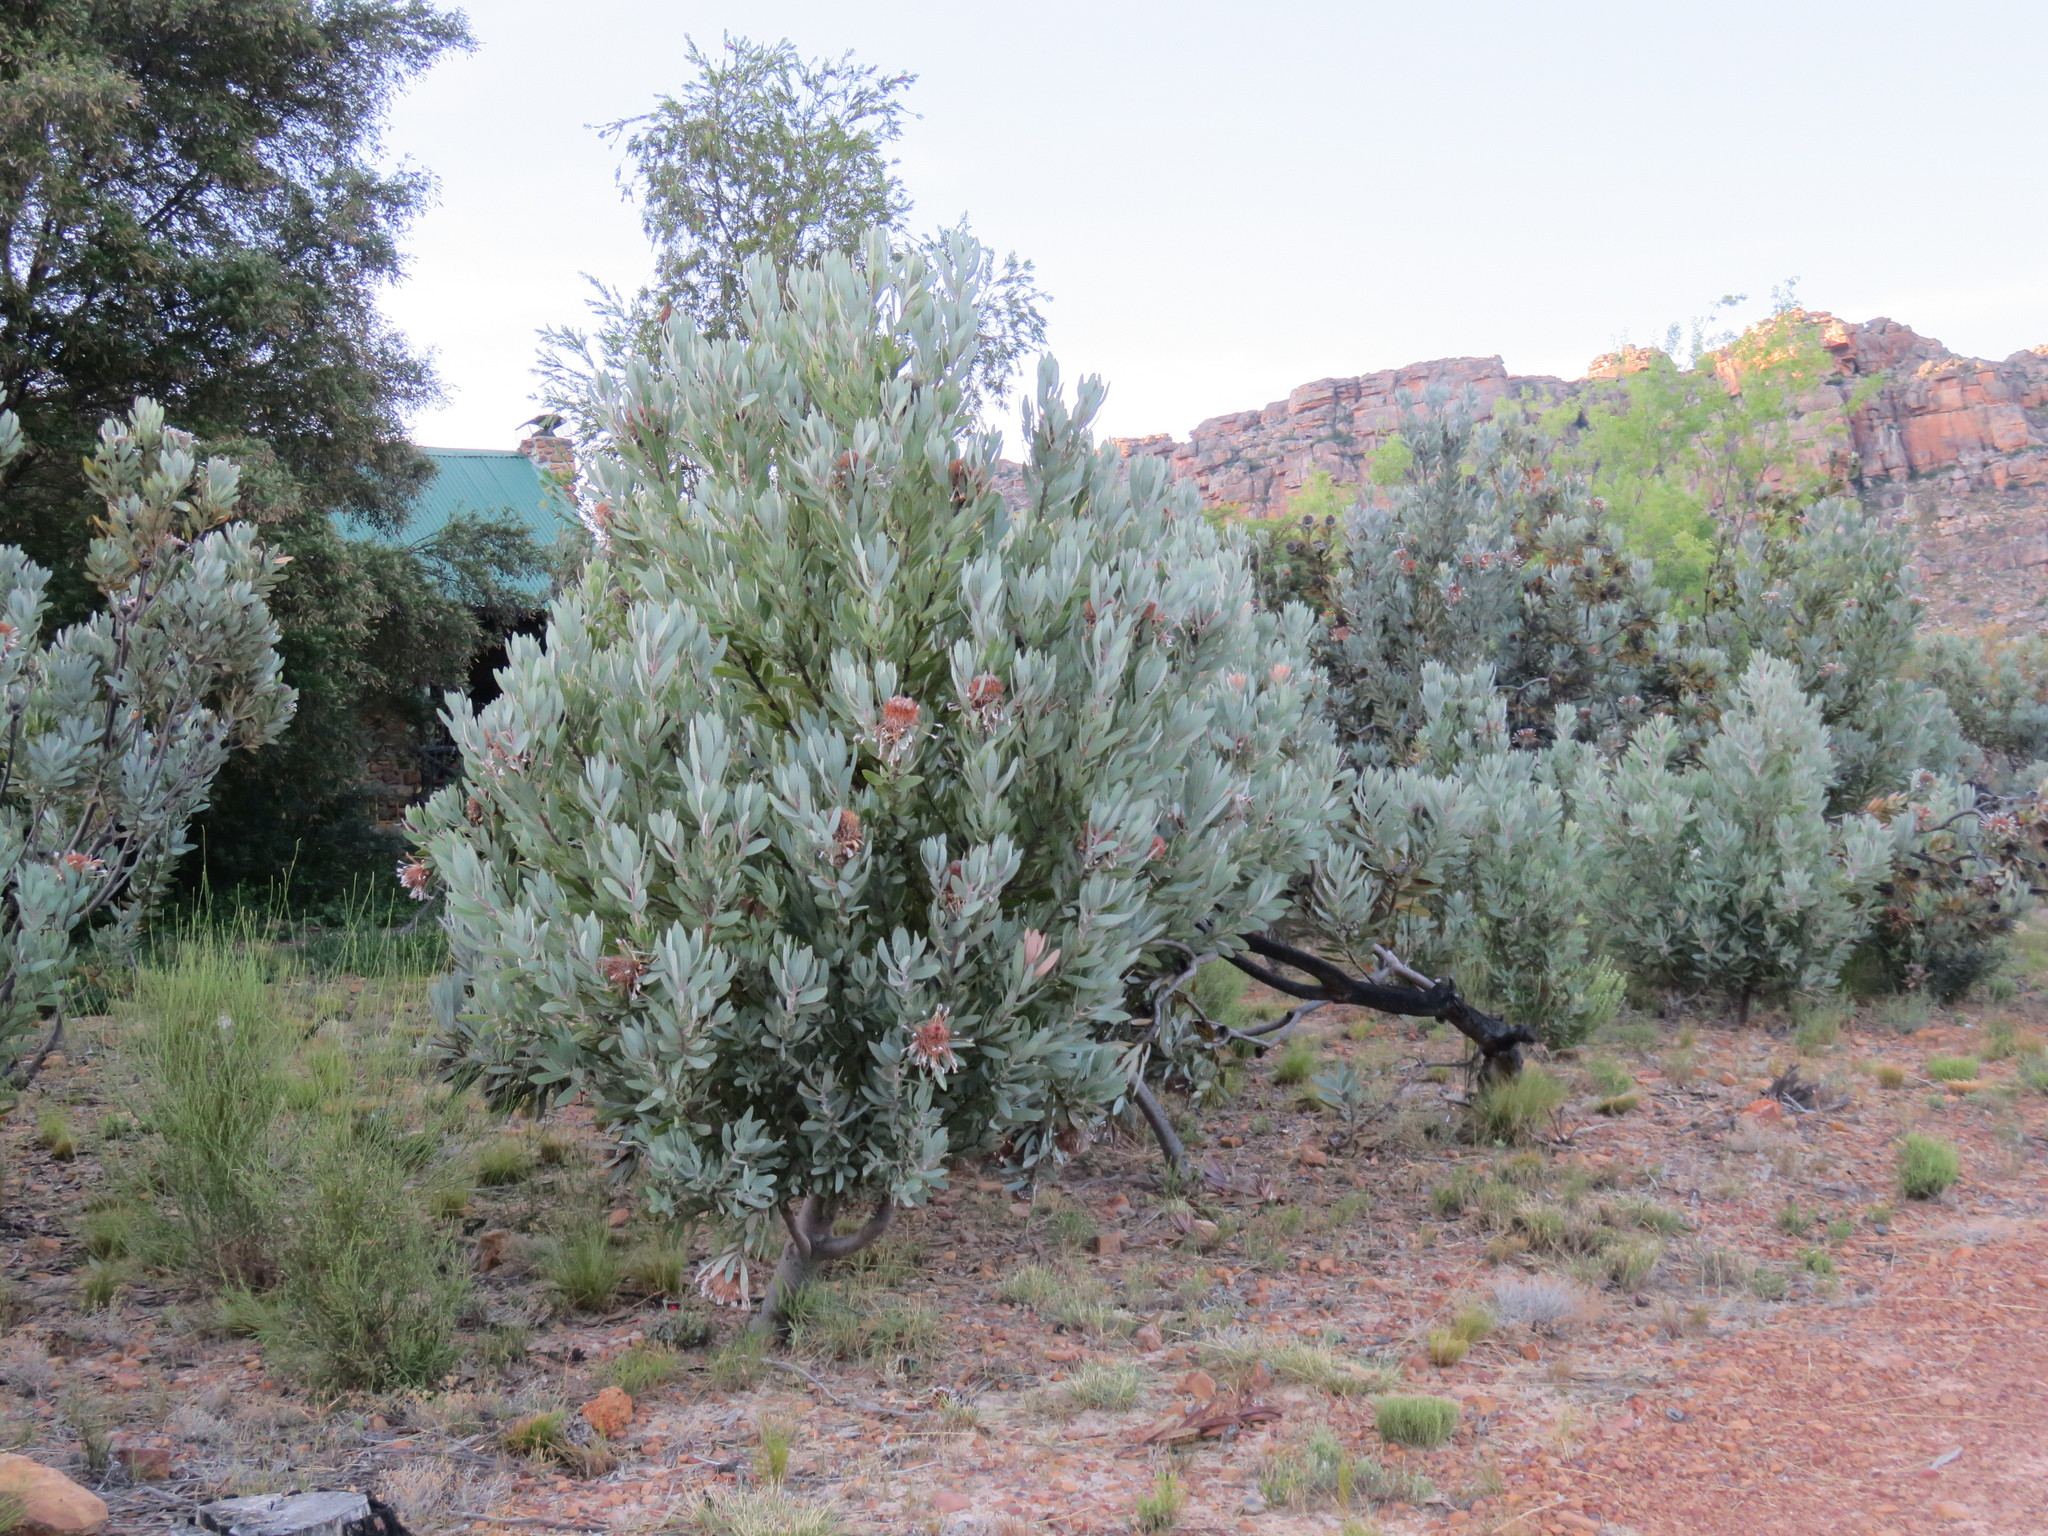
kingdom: Plantae
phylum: Tracheophyta
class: Magnoliopsida
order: Proteales
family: Proteaceae
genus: Protea
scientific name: Protea laurifolia
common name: Grey-leaf sugarbsh
